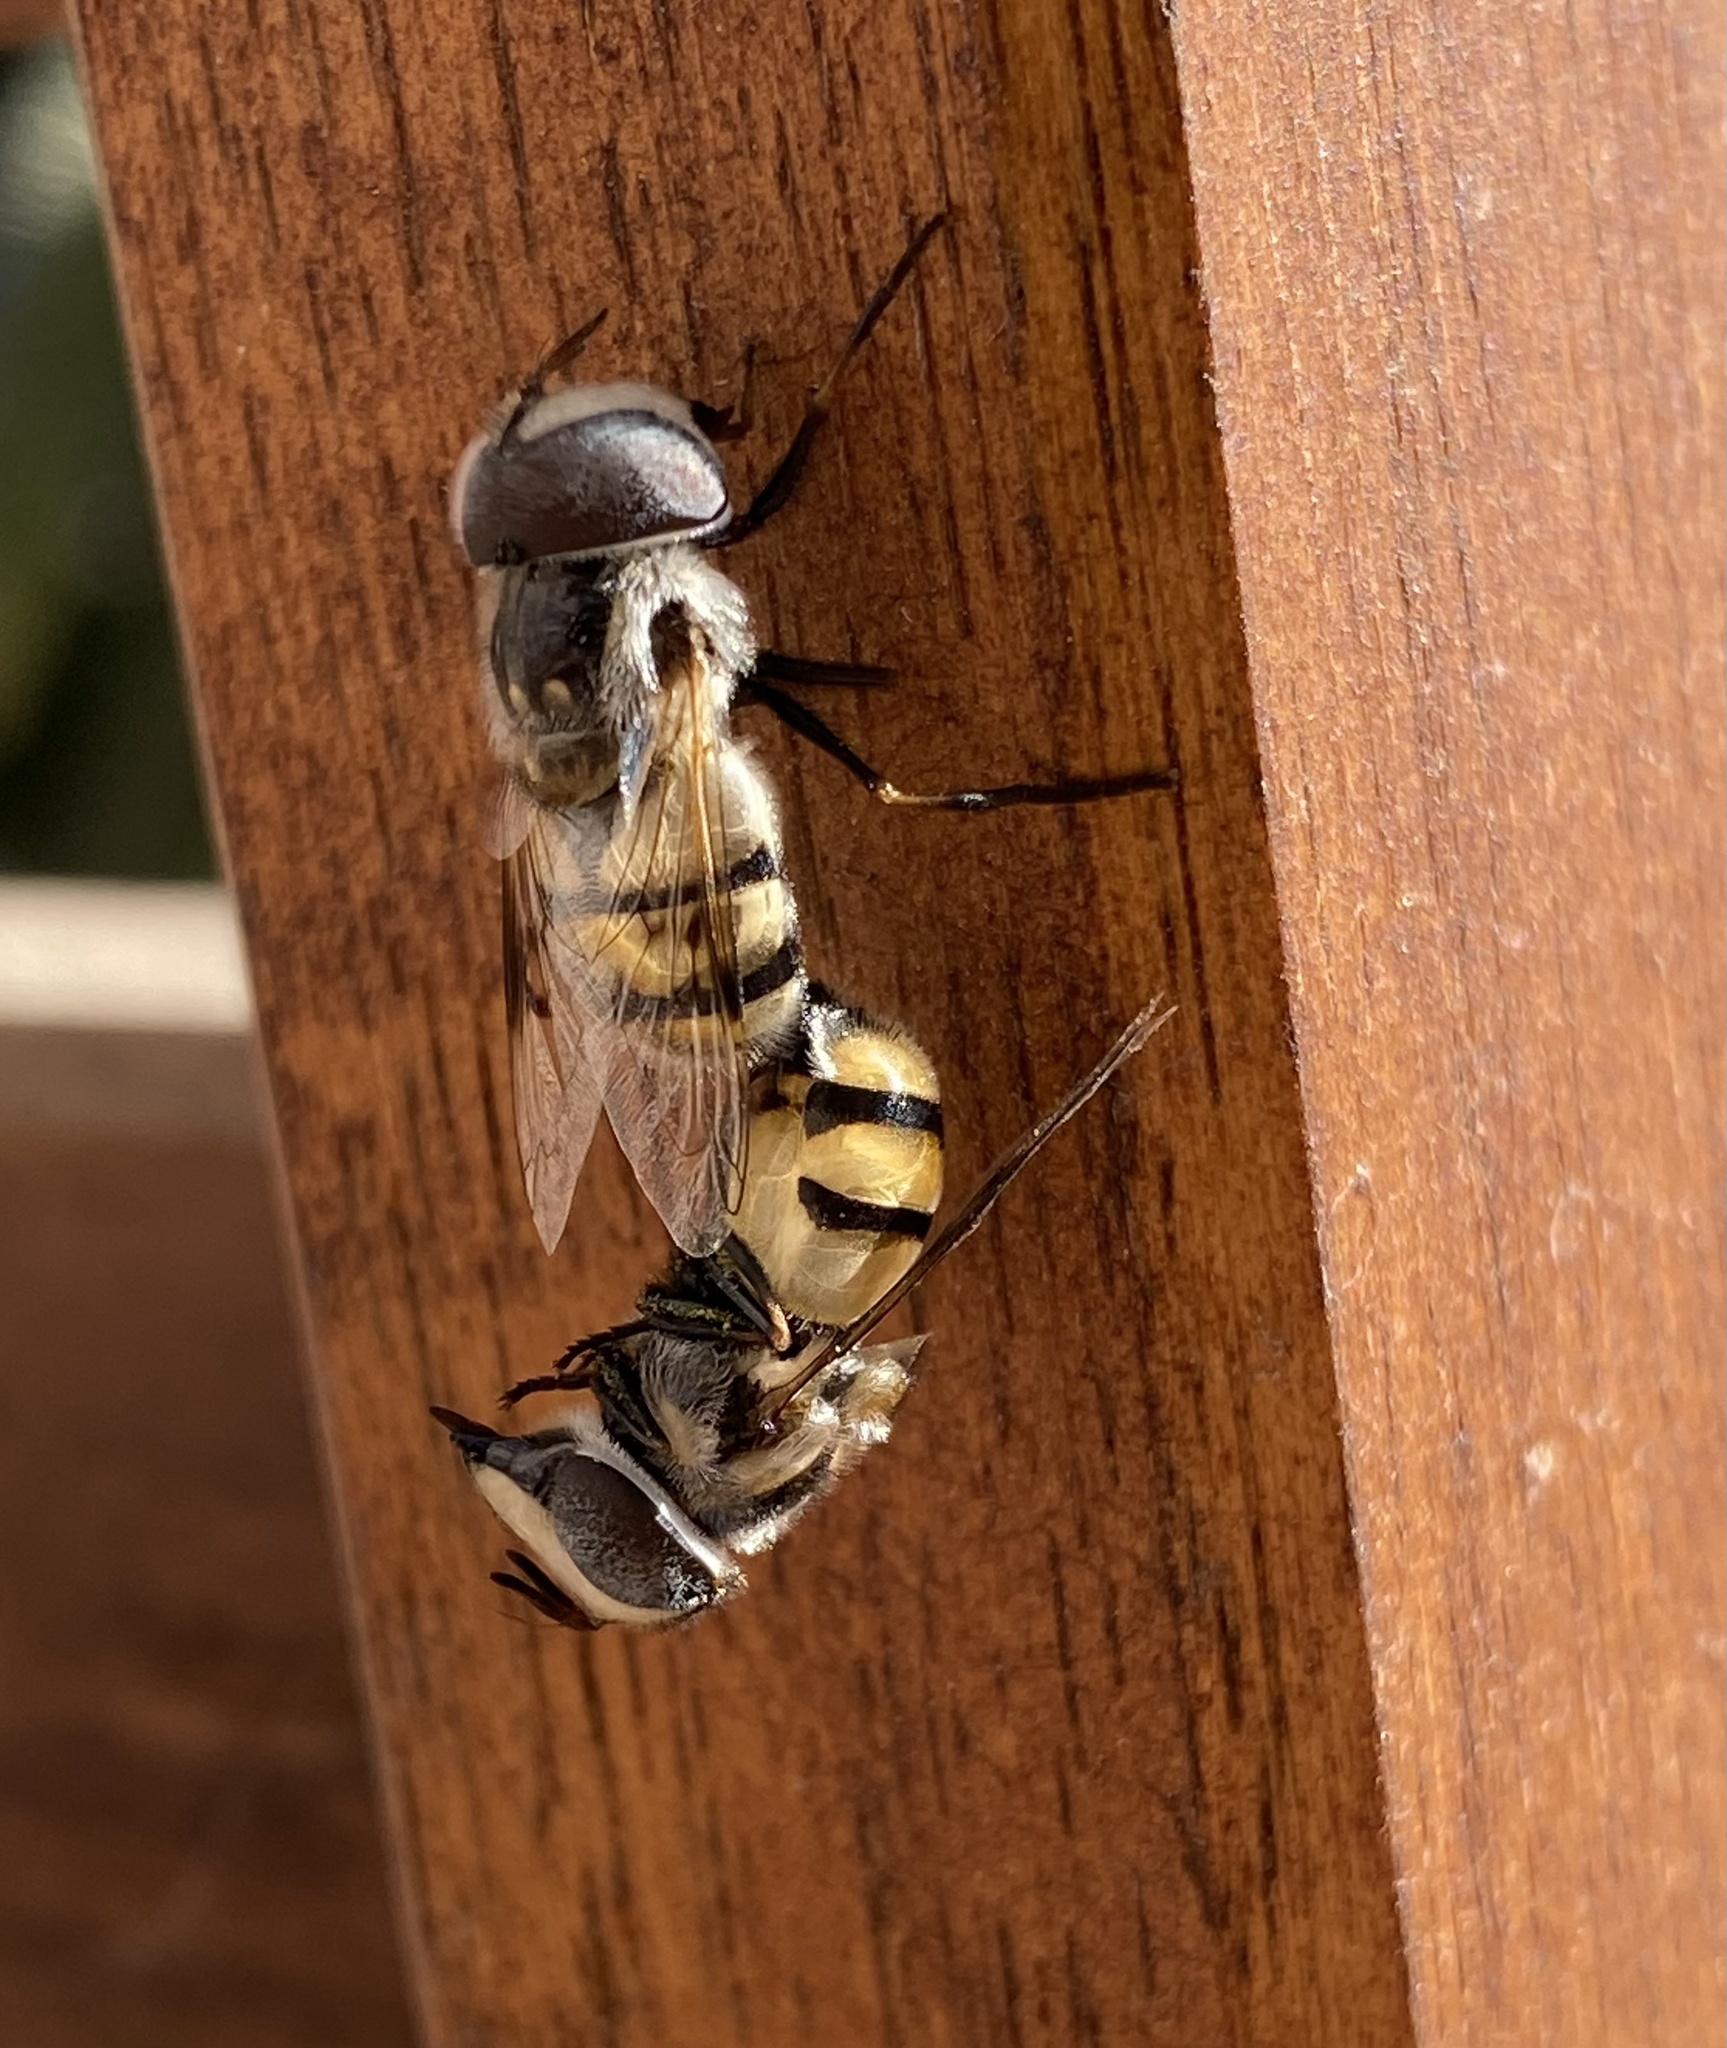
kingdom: Animalia
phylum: Arthropoda
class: Insecta
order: Diptera
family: Syrphidae
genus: Copestylum
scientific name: Copestylum fornax
